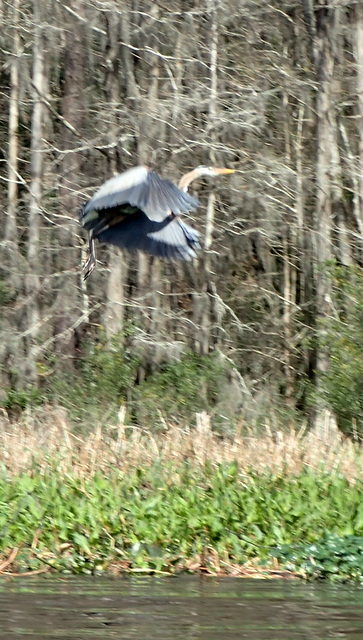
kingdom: Animalia
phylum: Chordata
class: Aves
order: Pelecaniformes
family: Ardeidae
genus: Ardea
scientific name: Ardea herodias
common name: Great blue heron
